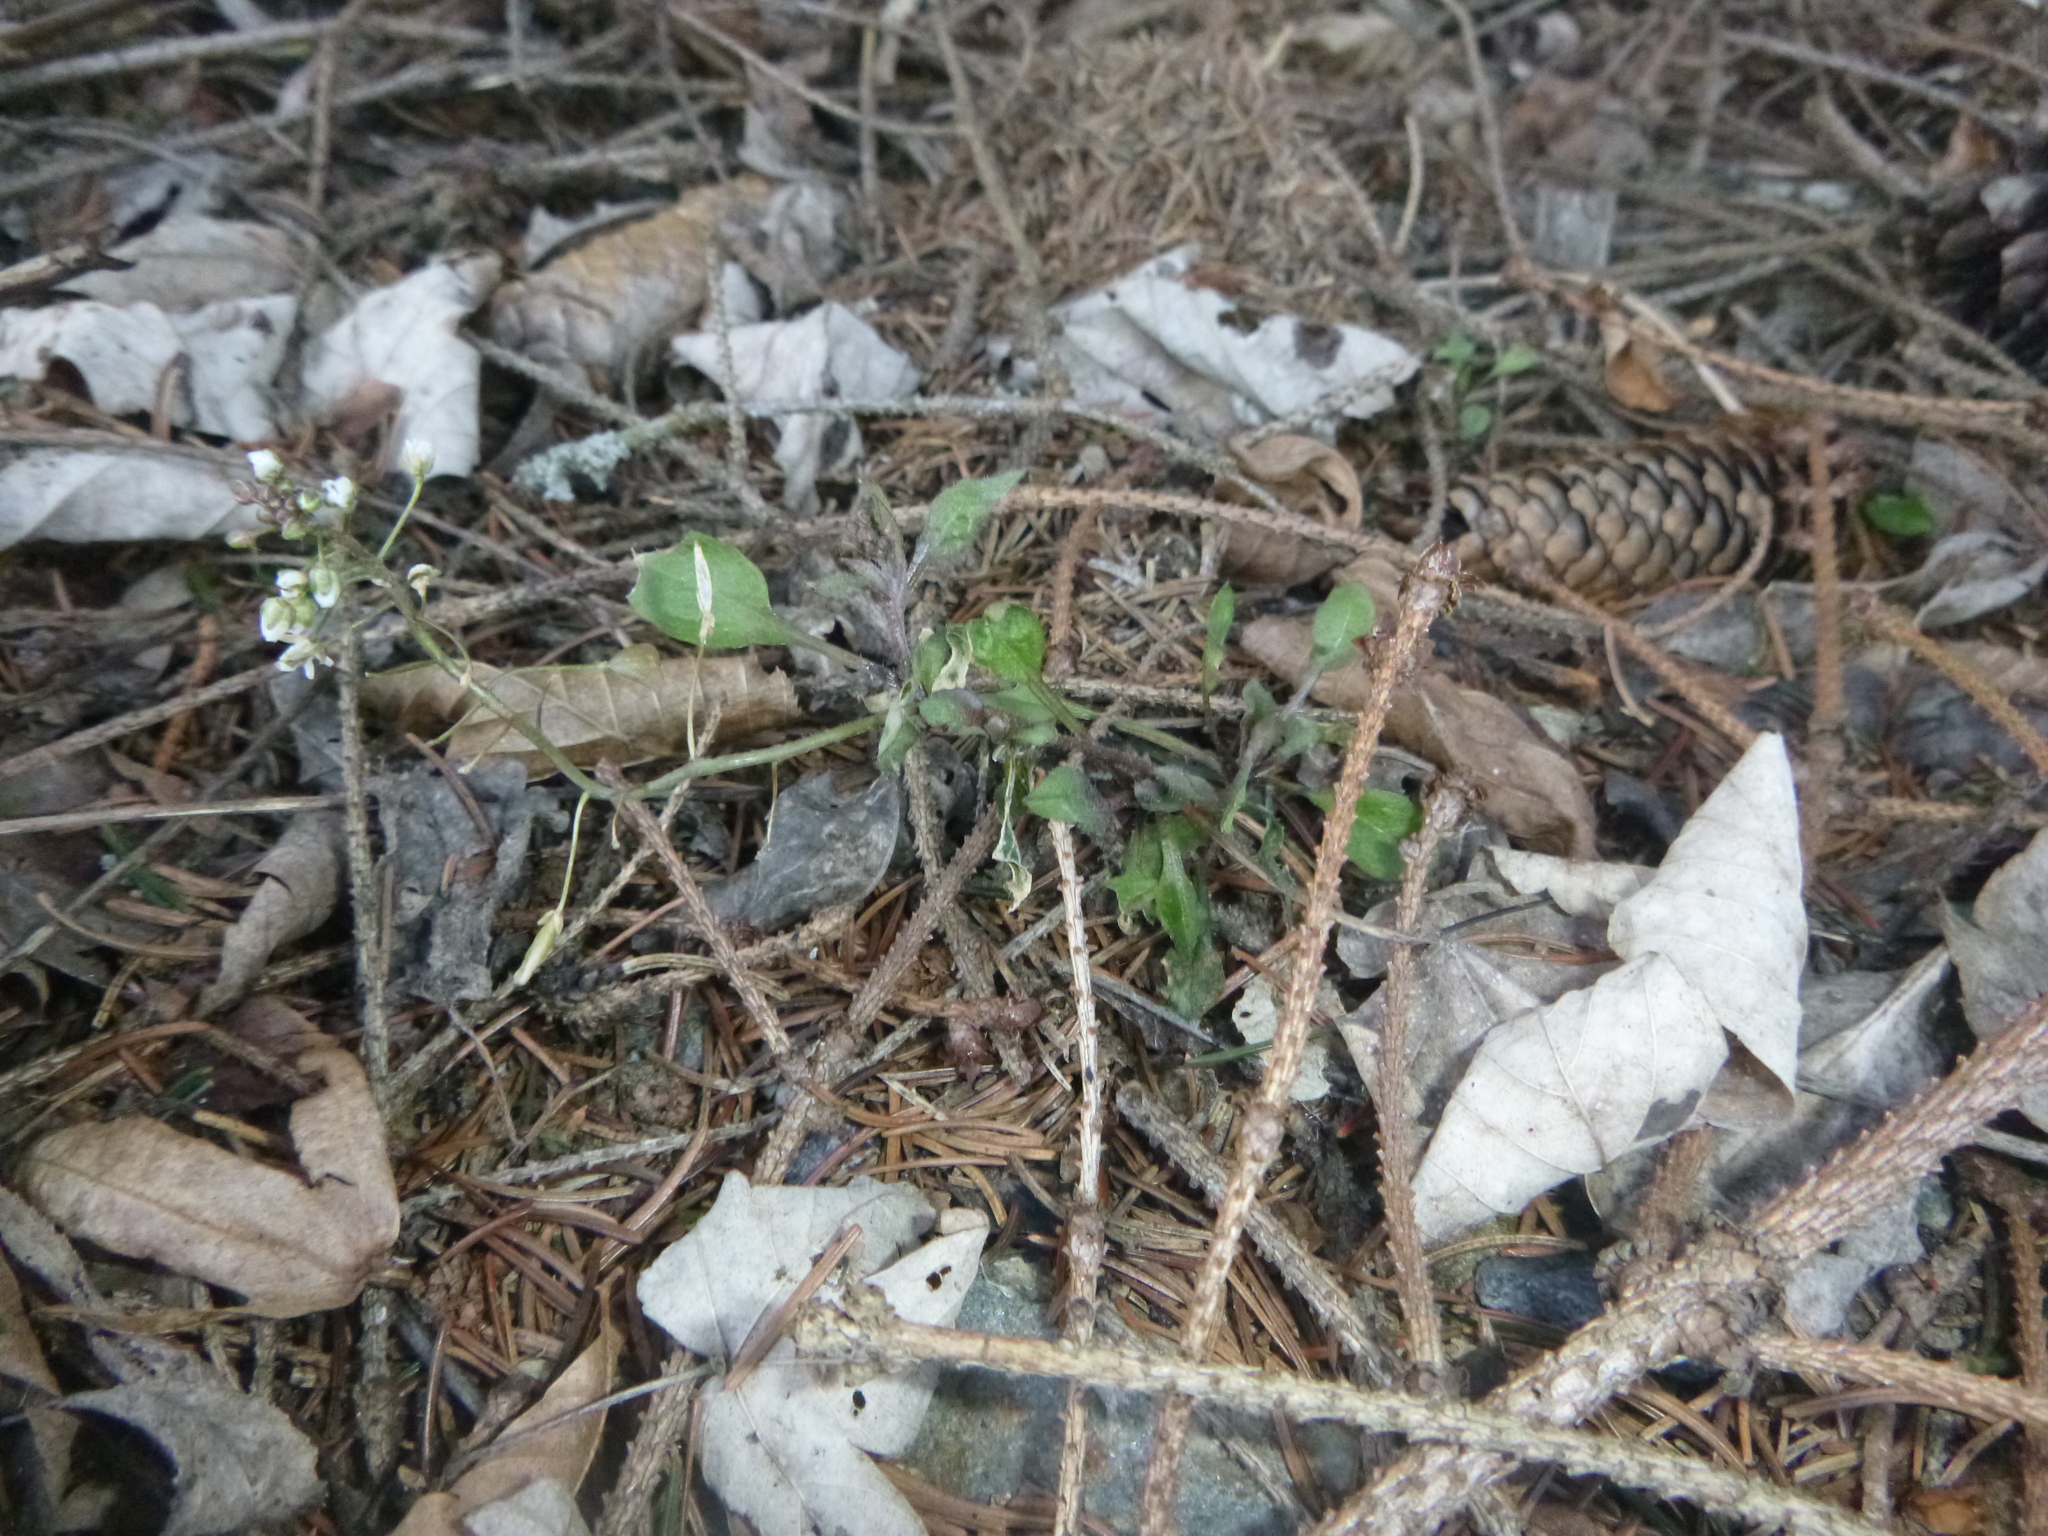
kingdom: Plantae
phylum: Tracheophyta
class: Magnoliopsida
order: Brassicales
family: Brassicaceae
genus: Capsella
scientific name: Capsella bursa-pastoris
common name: Shepherd's purse
